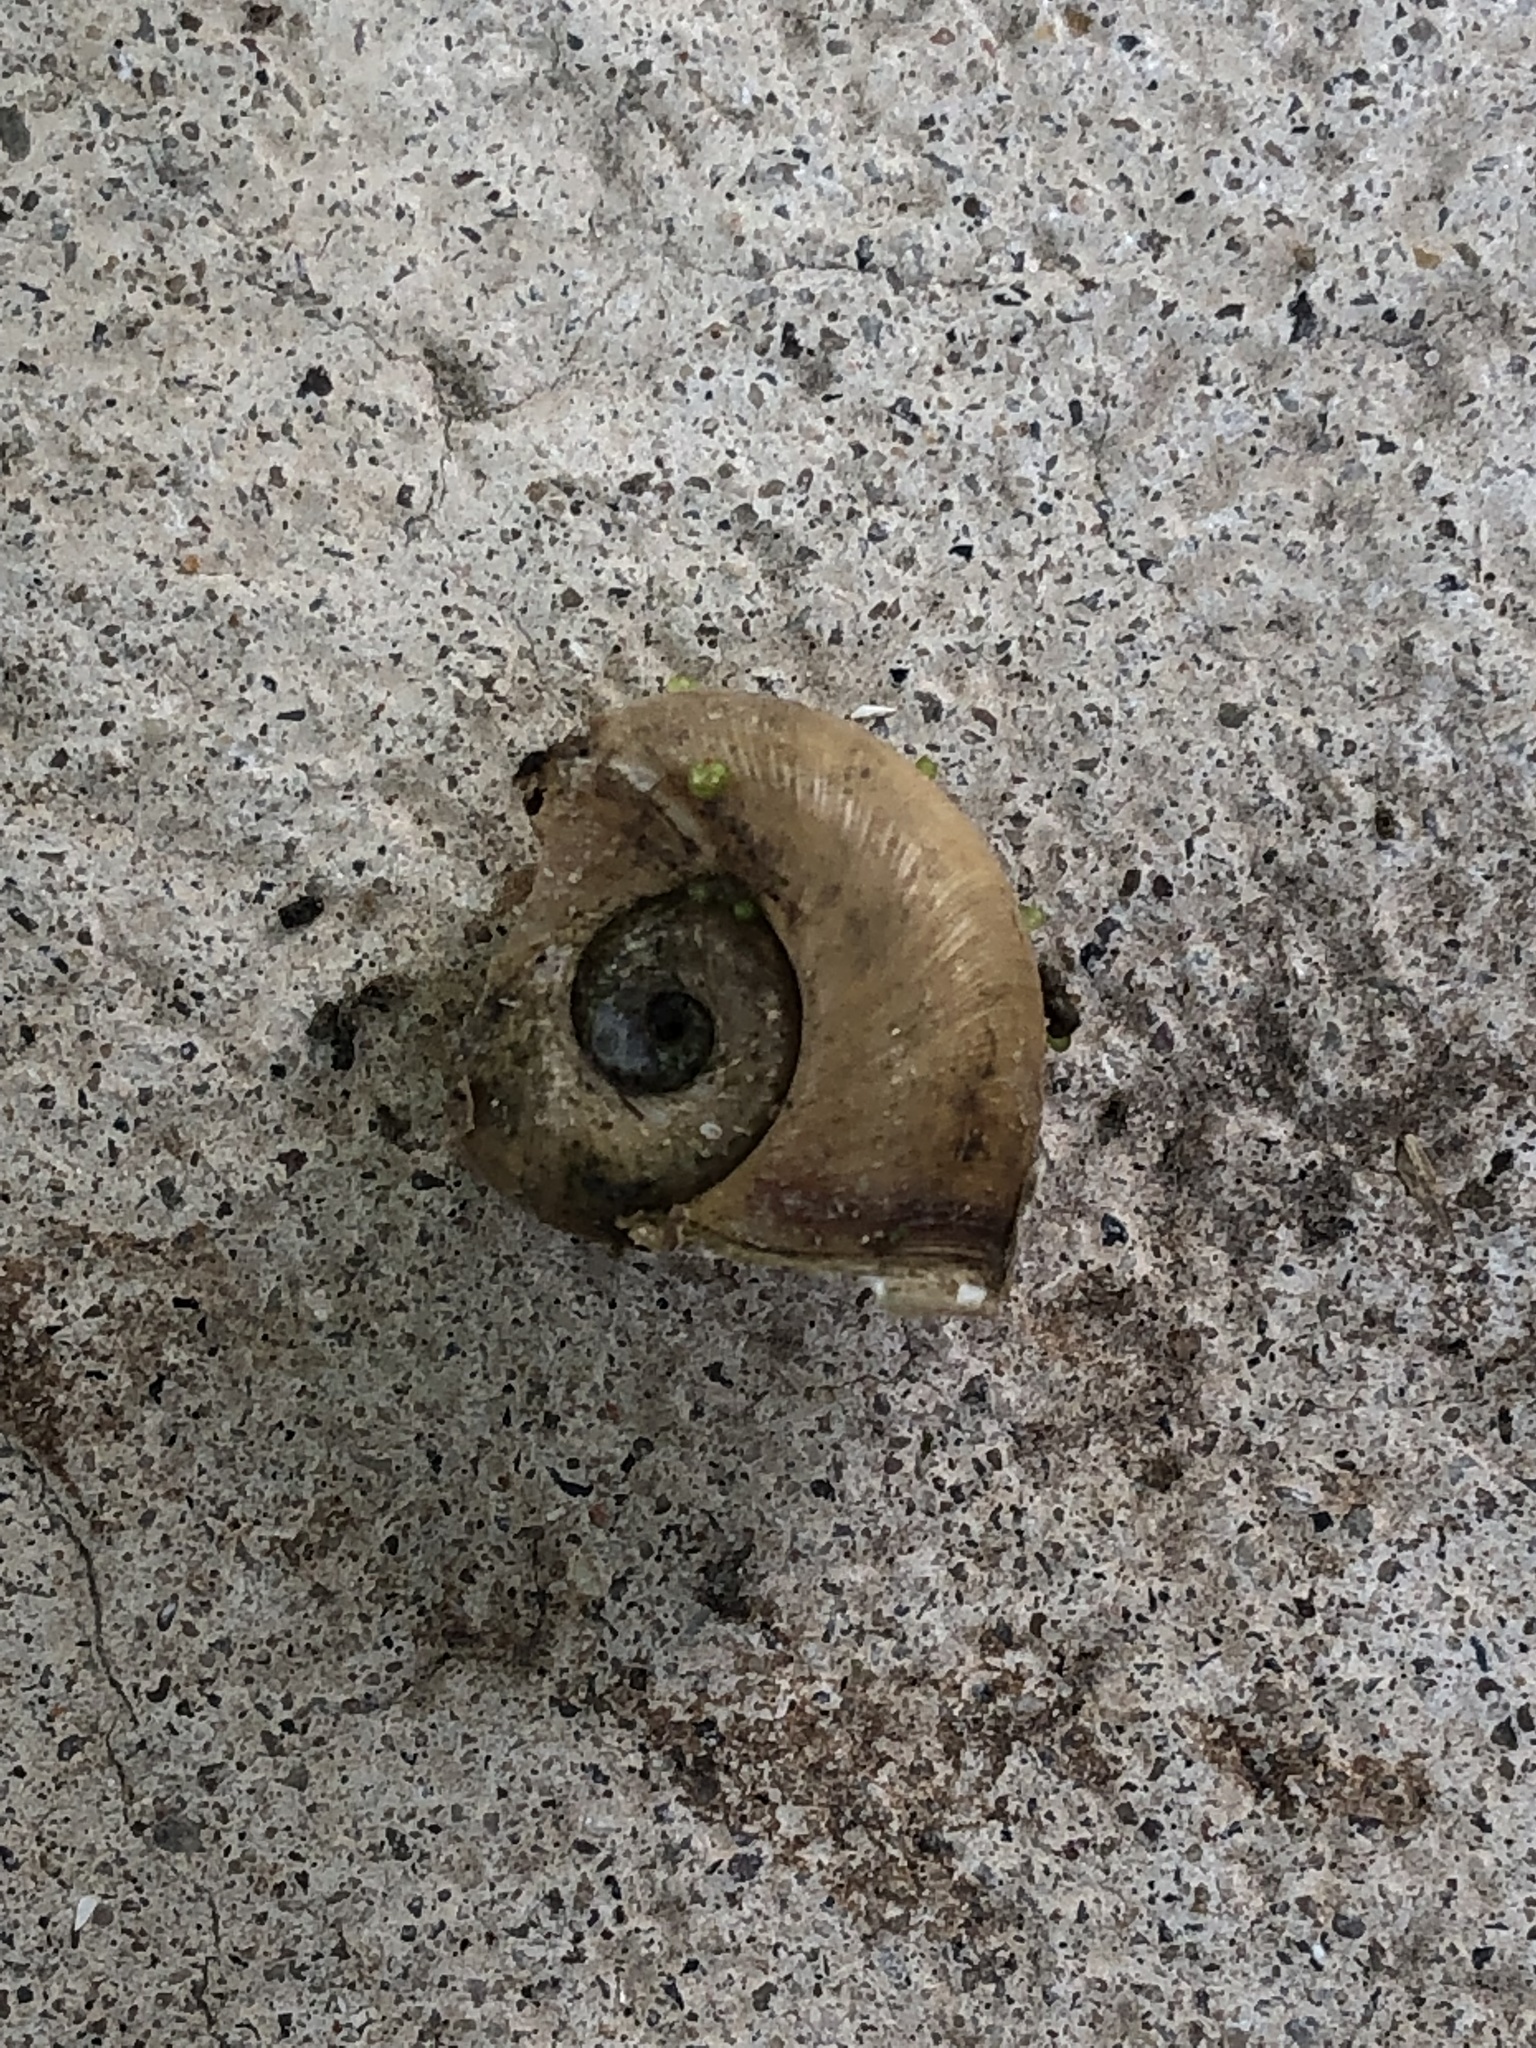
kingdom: Animalia
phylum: Mollusca
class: Gastropoda
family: Planorbidae
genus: Planorbella
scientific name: Planorbella trivolvis
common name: Marsh rams-horn
